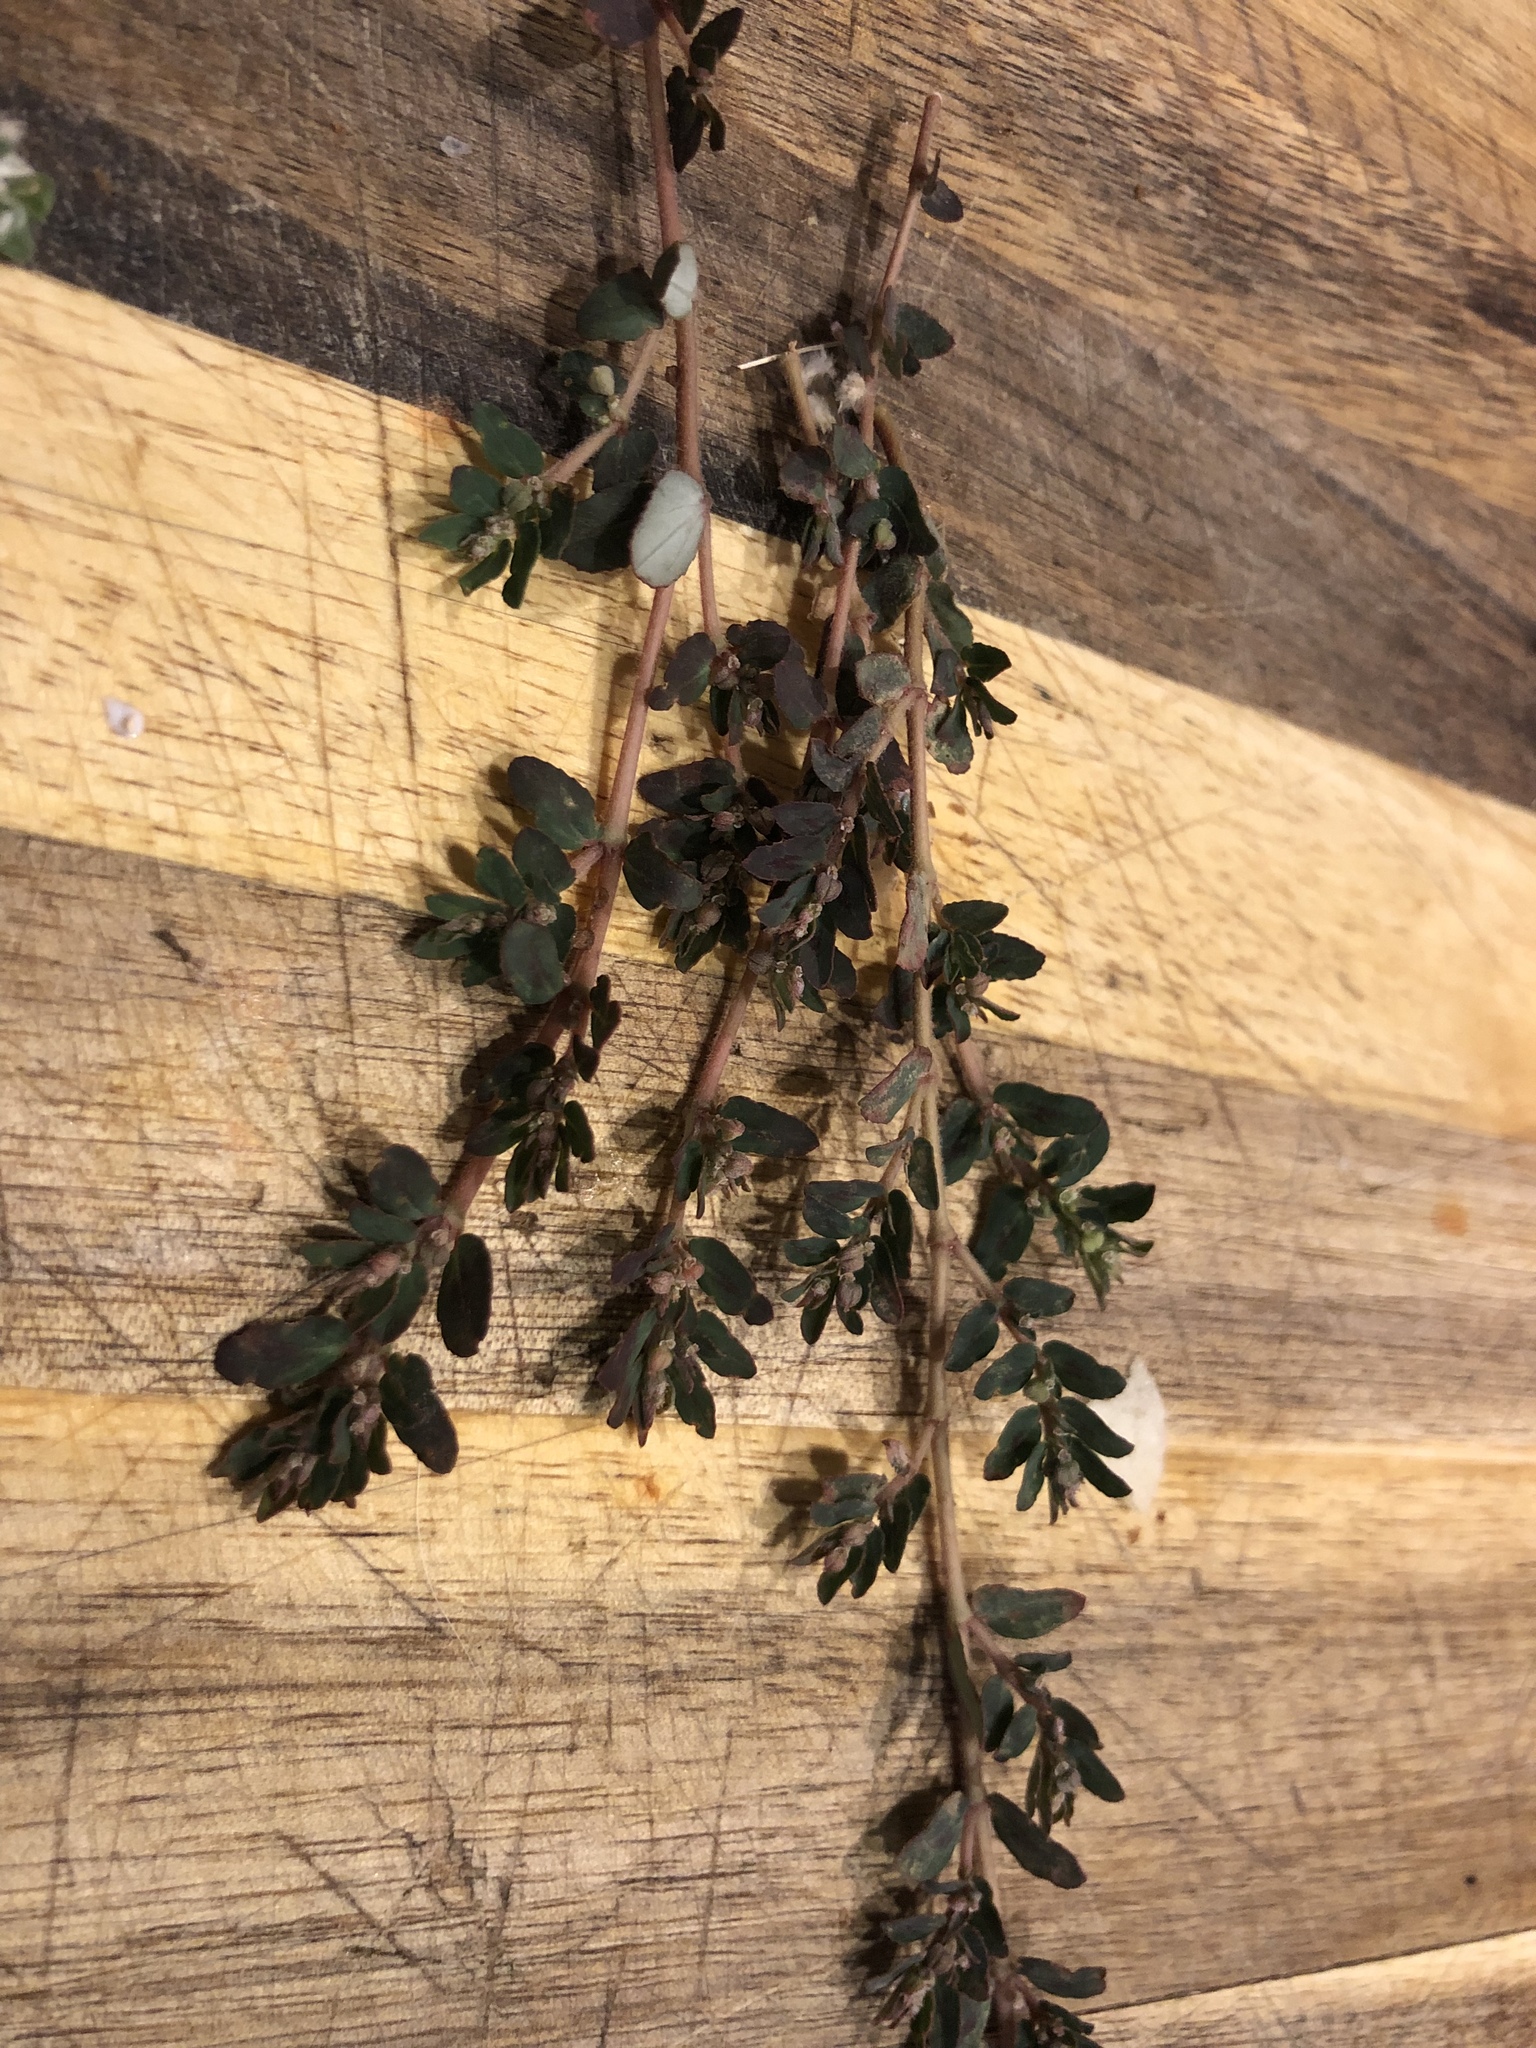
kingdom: Plantae
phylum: Tracheophyta
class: Magnoliopsida
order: Malpighiales
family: Euphorbiaceae
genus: Euphorbia
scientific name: Euphorbia maculata
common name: Spotted spurge
